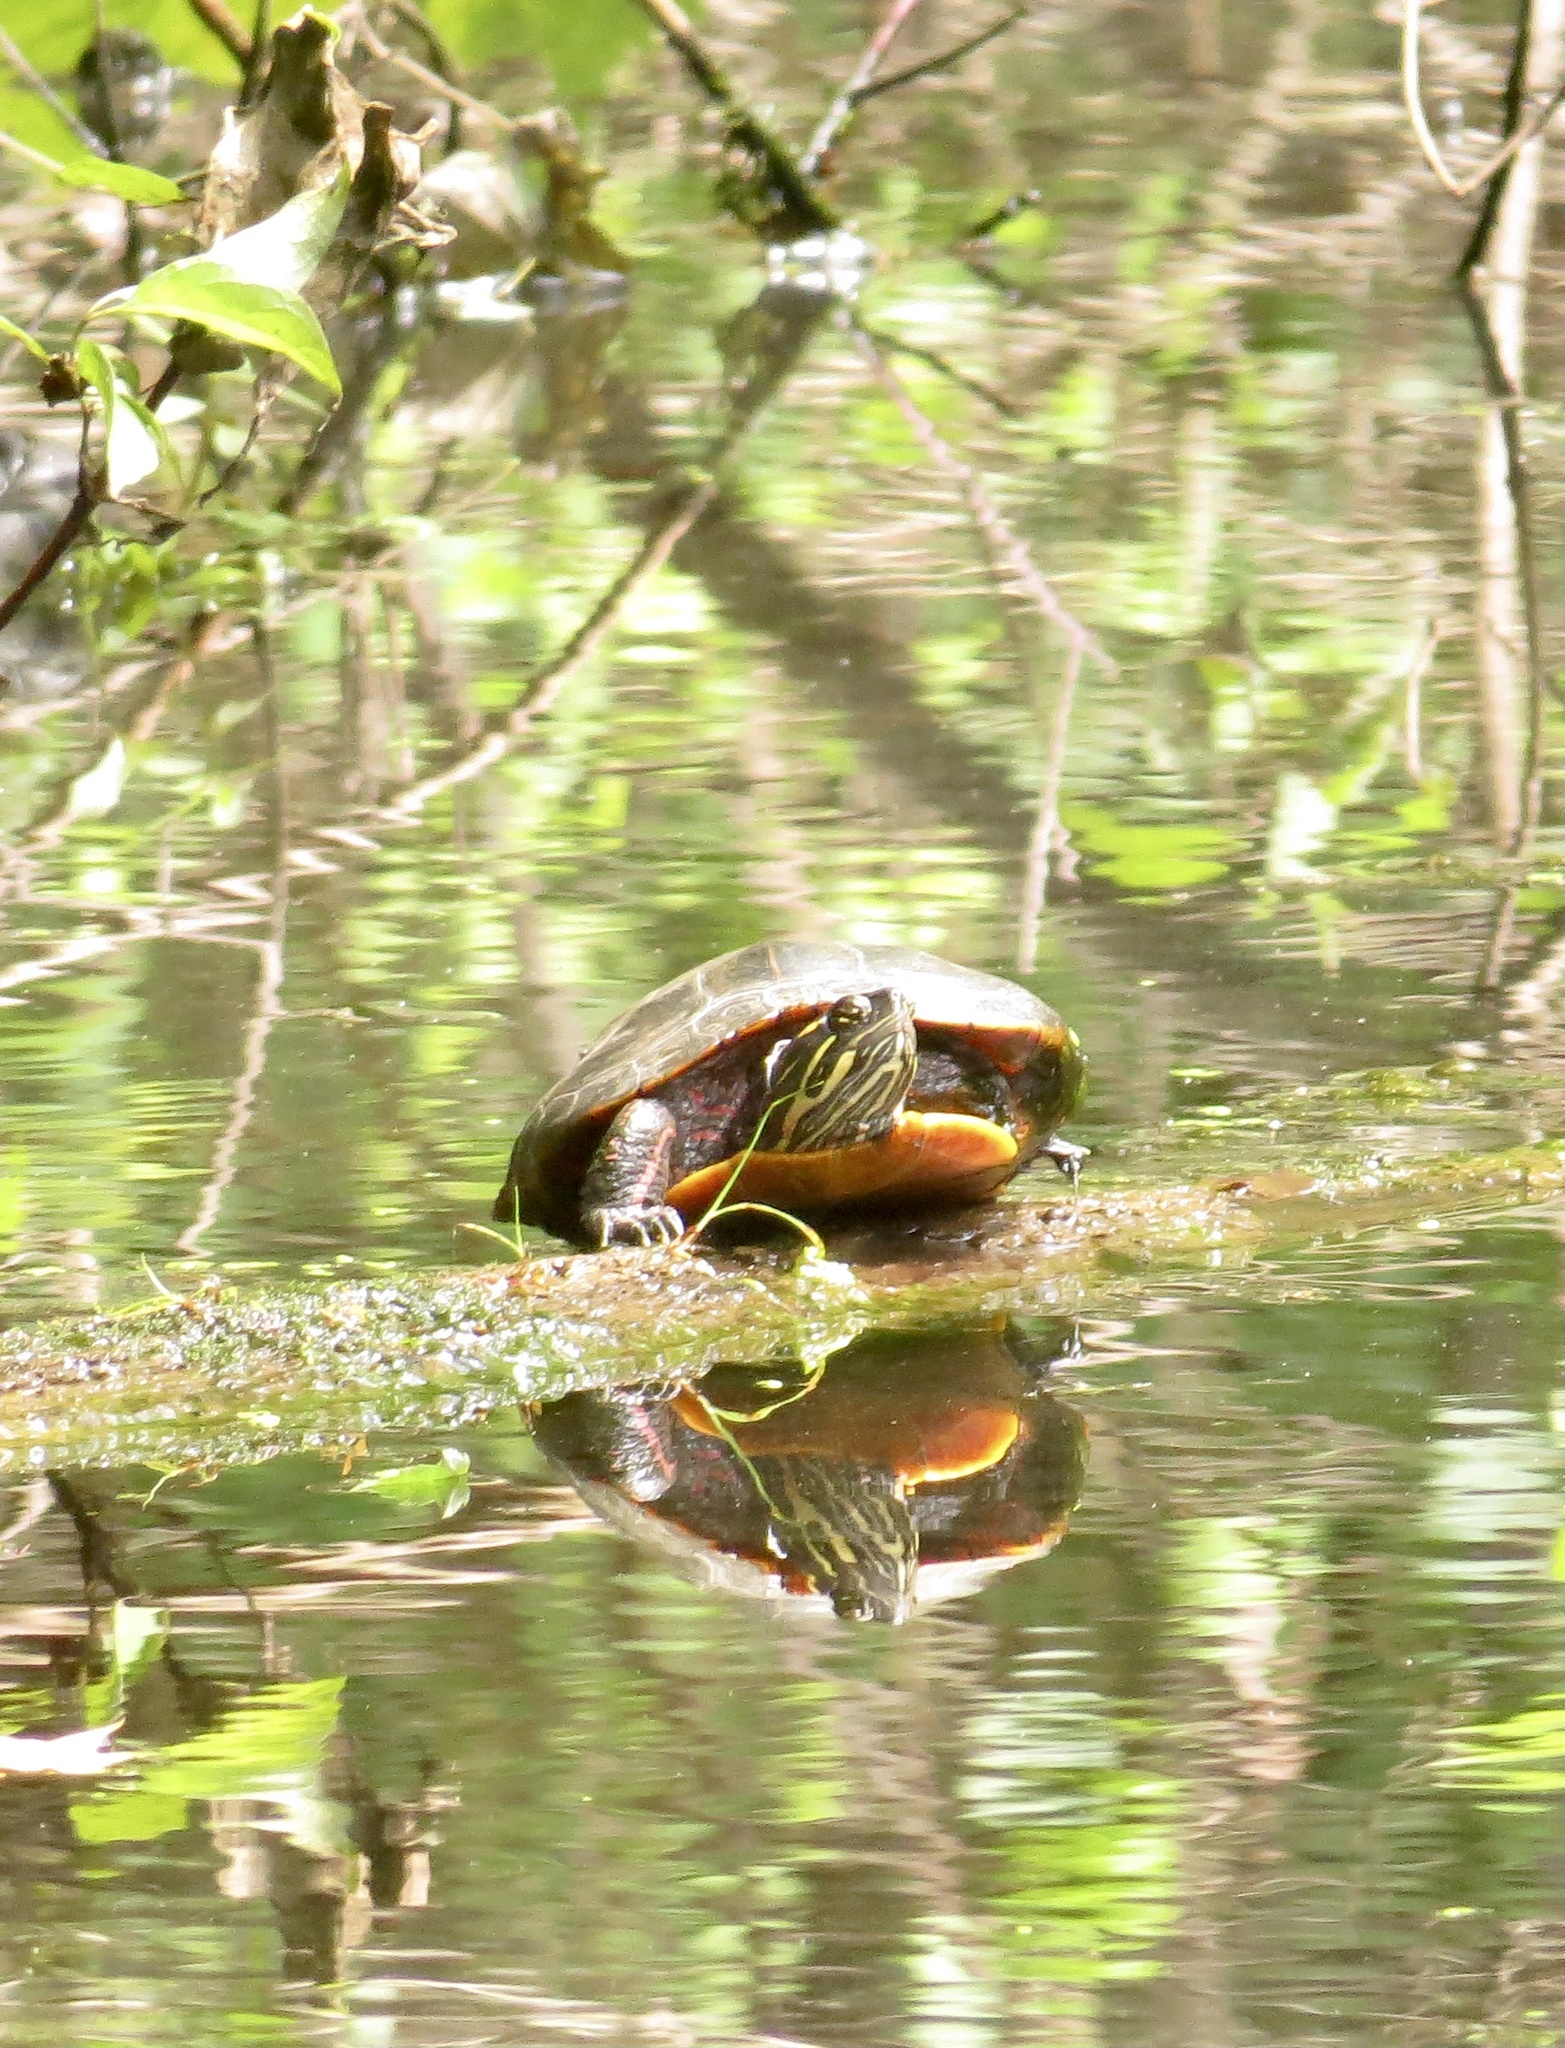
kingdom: Animalia
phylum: Chordata
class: Testudines
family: Emydidae
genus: Chrysemys
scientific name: Chrysemys picta
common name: Painted turtle
